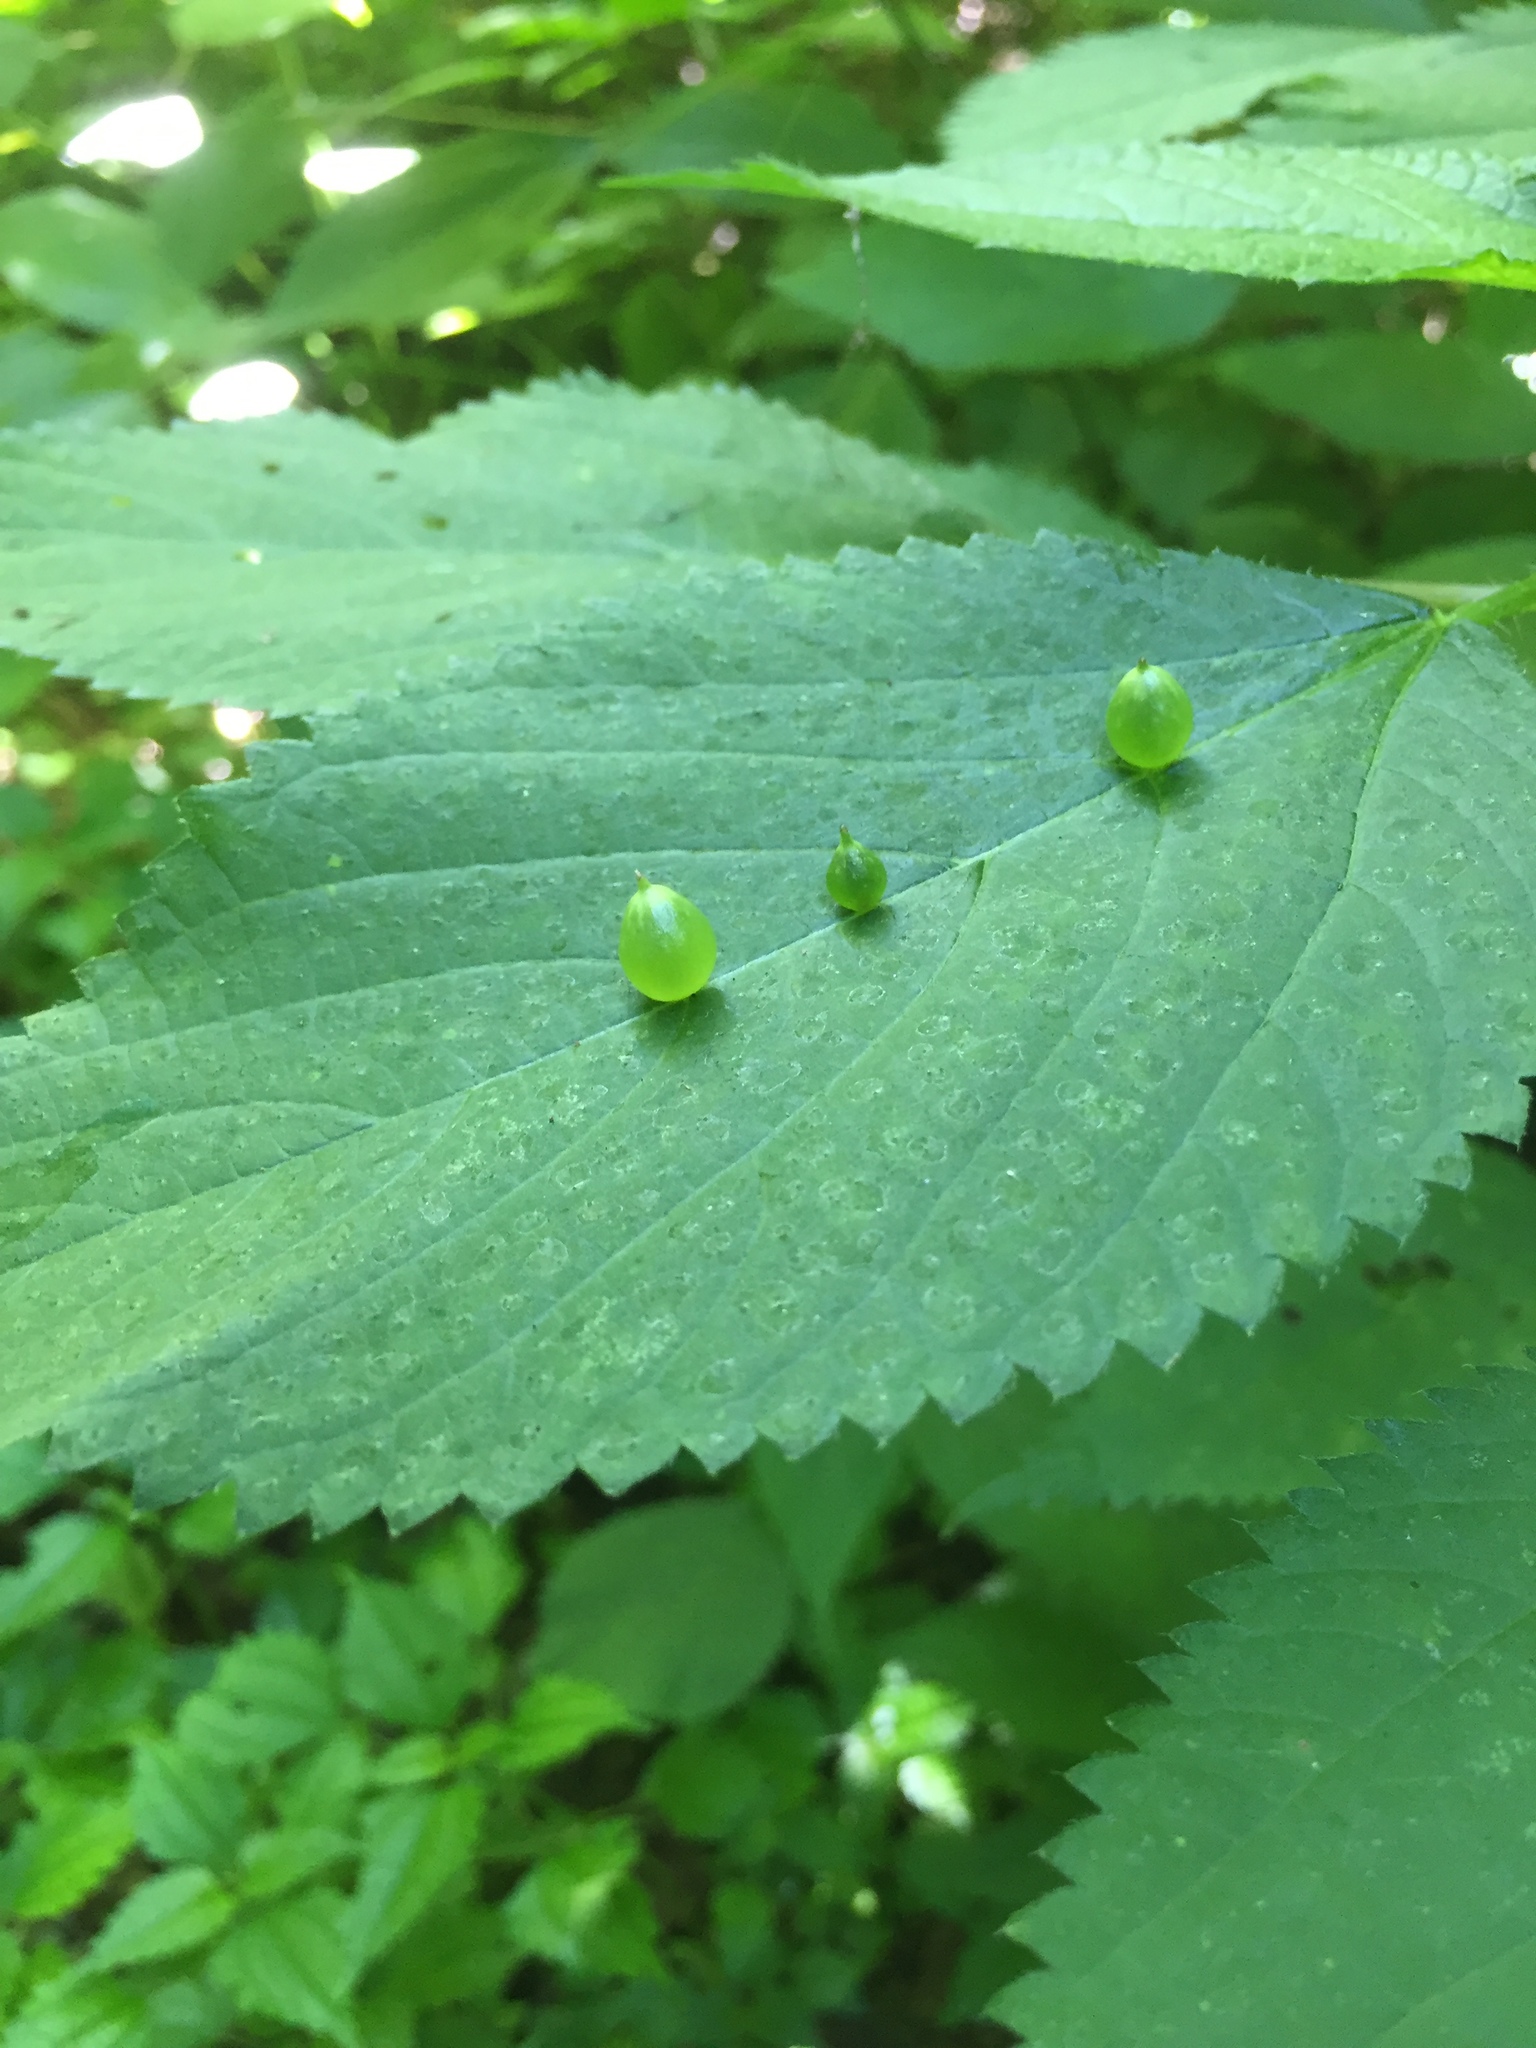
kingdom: Animalia
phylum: Arthropoda
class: Insecta
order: Diptera
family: Cecidomyiidae
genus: Dasineura
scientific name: Dasineura investita
